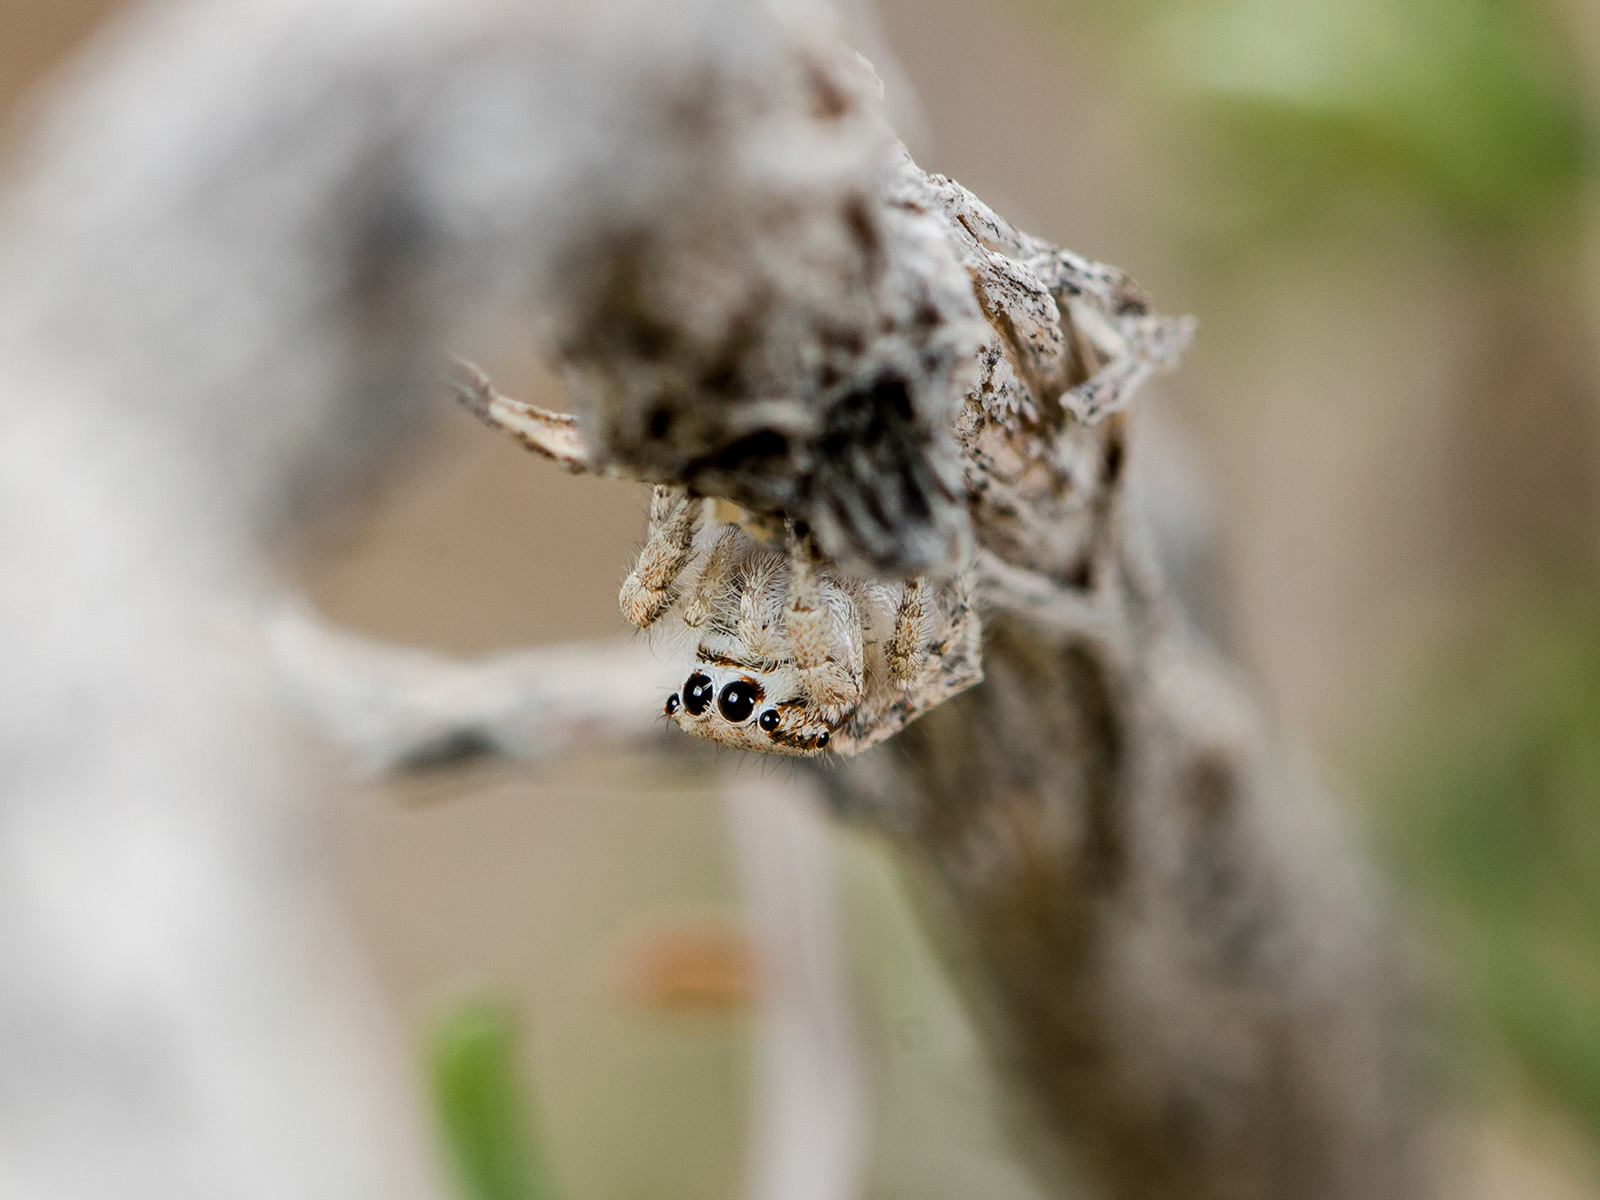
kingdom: Animalia
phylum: Arthropoda
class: Arachnida
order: Araneae
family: Salticidae
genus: Marusyllus
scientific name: Marusyllus aralicus
